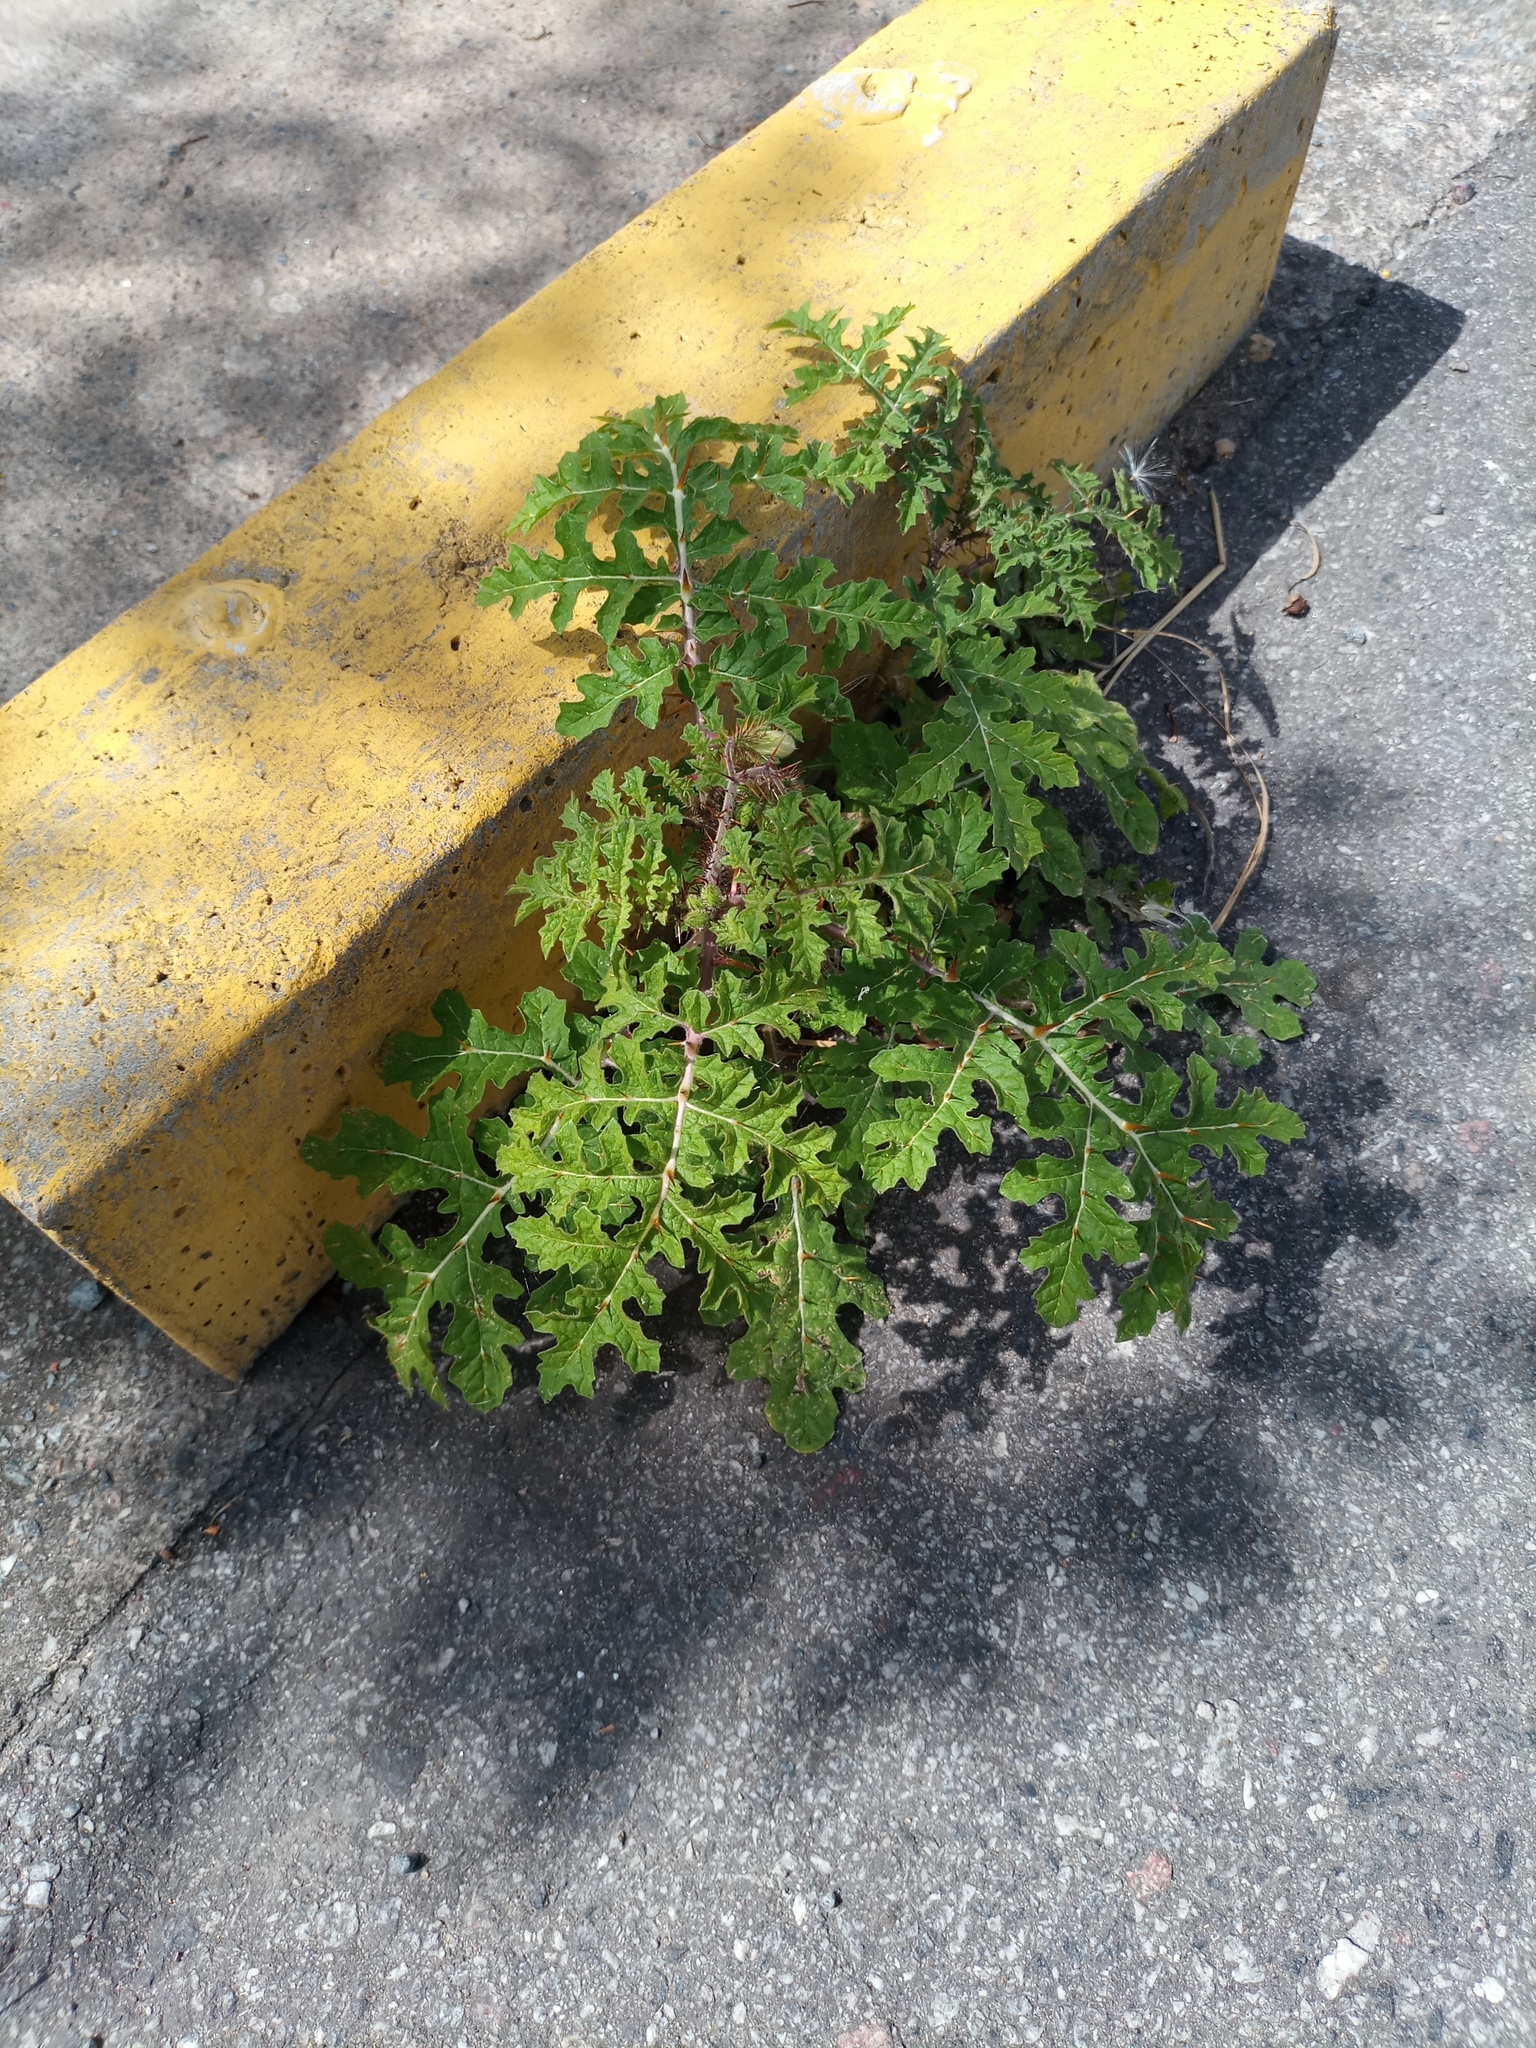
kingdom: Plantae
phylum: Tracheophyta
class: Magnoliopsida
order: Solanales
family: Solanaceae
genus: Solanum
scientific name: Solanum sisymbriifolium
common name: Red buffalo-bur
